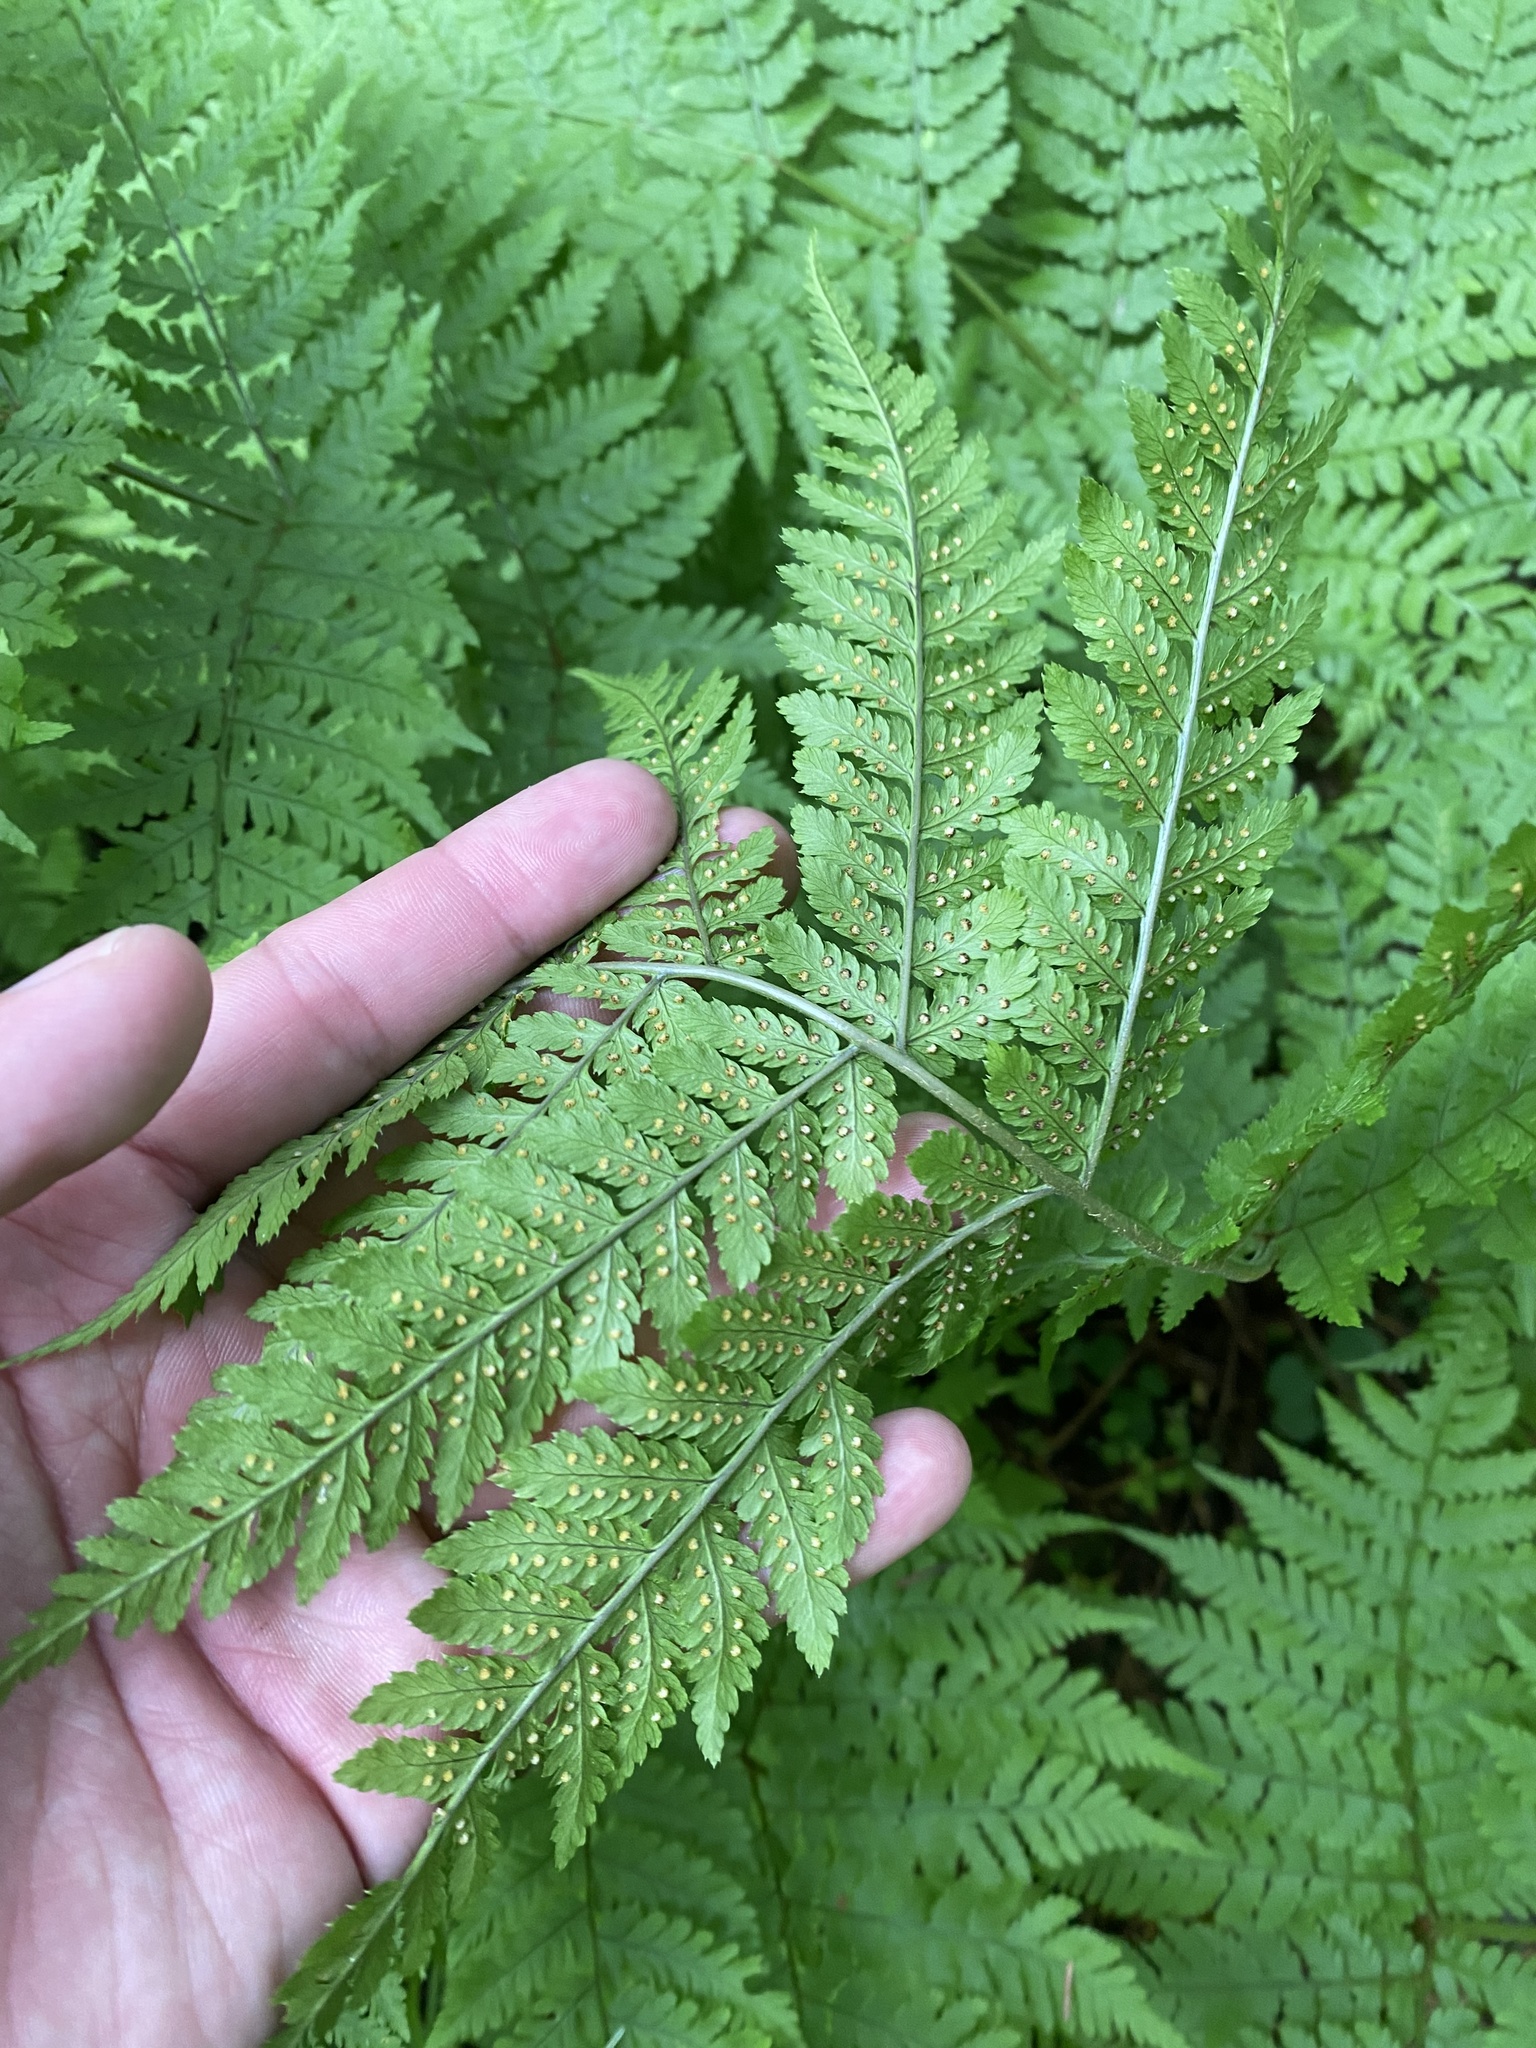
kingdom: Plantae
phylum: Tracheophyta
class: Polypodiopsida
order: Polypodiales
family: Dryopteridaceae
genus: Dryopteris
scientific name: Dryopteris expansa
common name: Northern buckler fern
